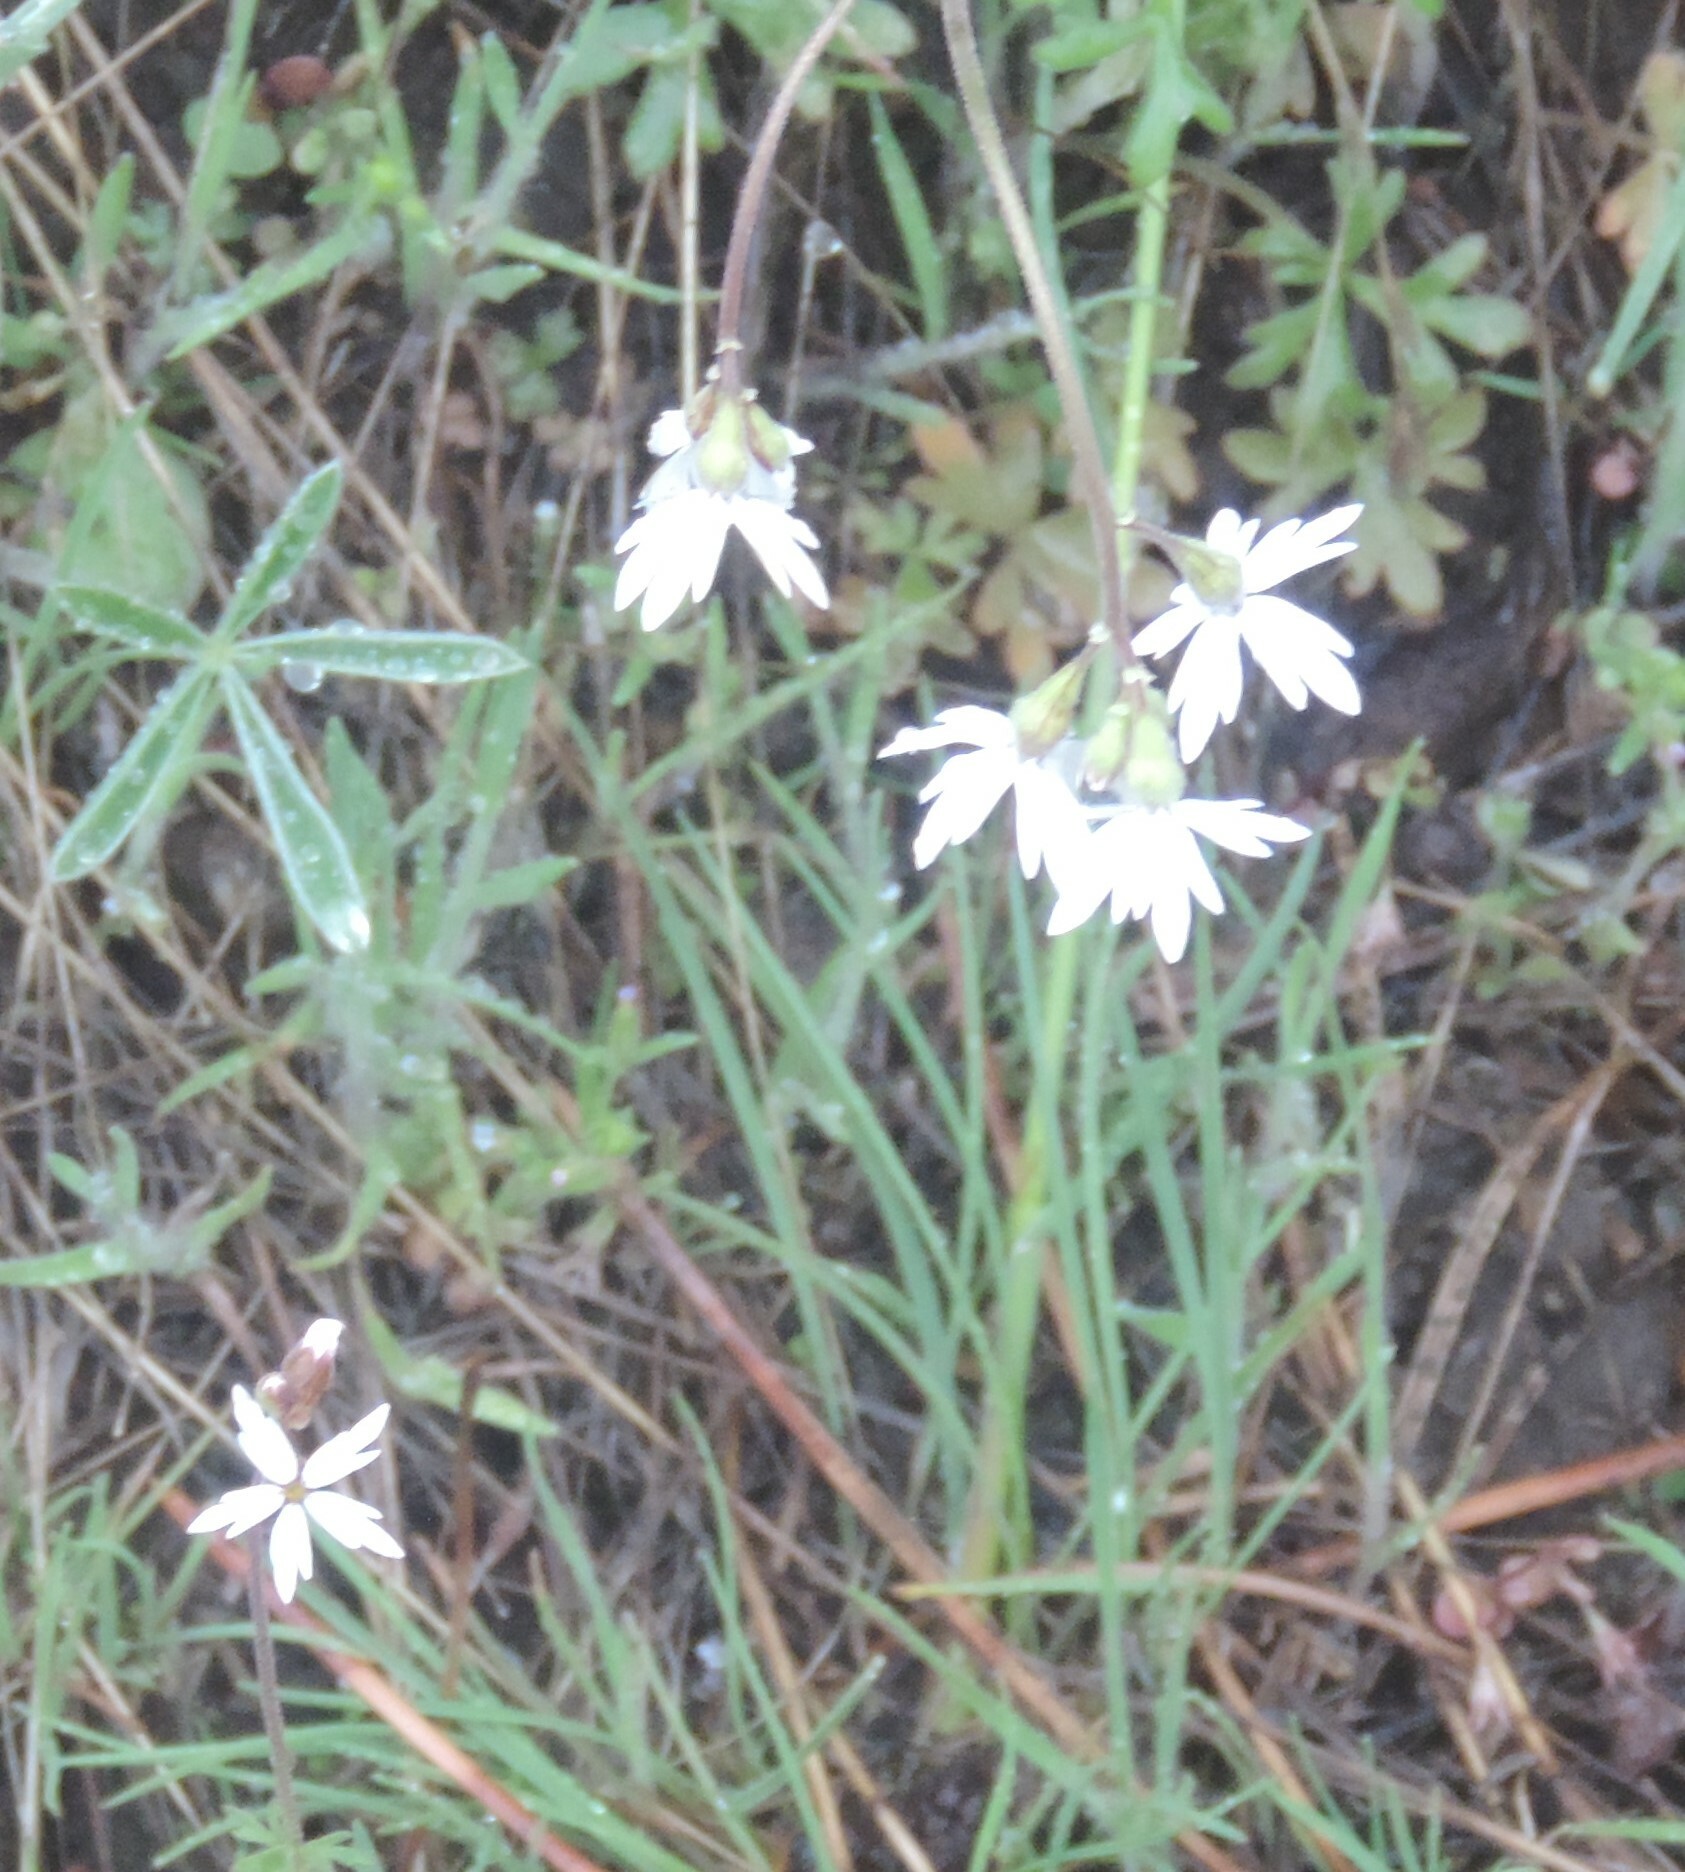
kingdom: Plantae
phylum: Tracheophyta
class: Magnoliopsida
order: Saxifragales
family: Saxifragaceae
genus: Lithophragma
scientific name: Lithophragma parviflorum
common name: Small-flowered fringe-cup
